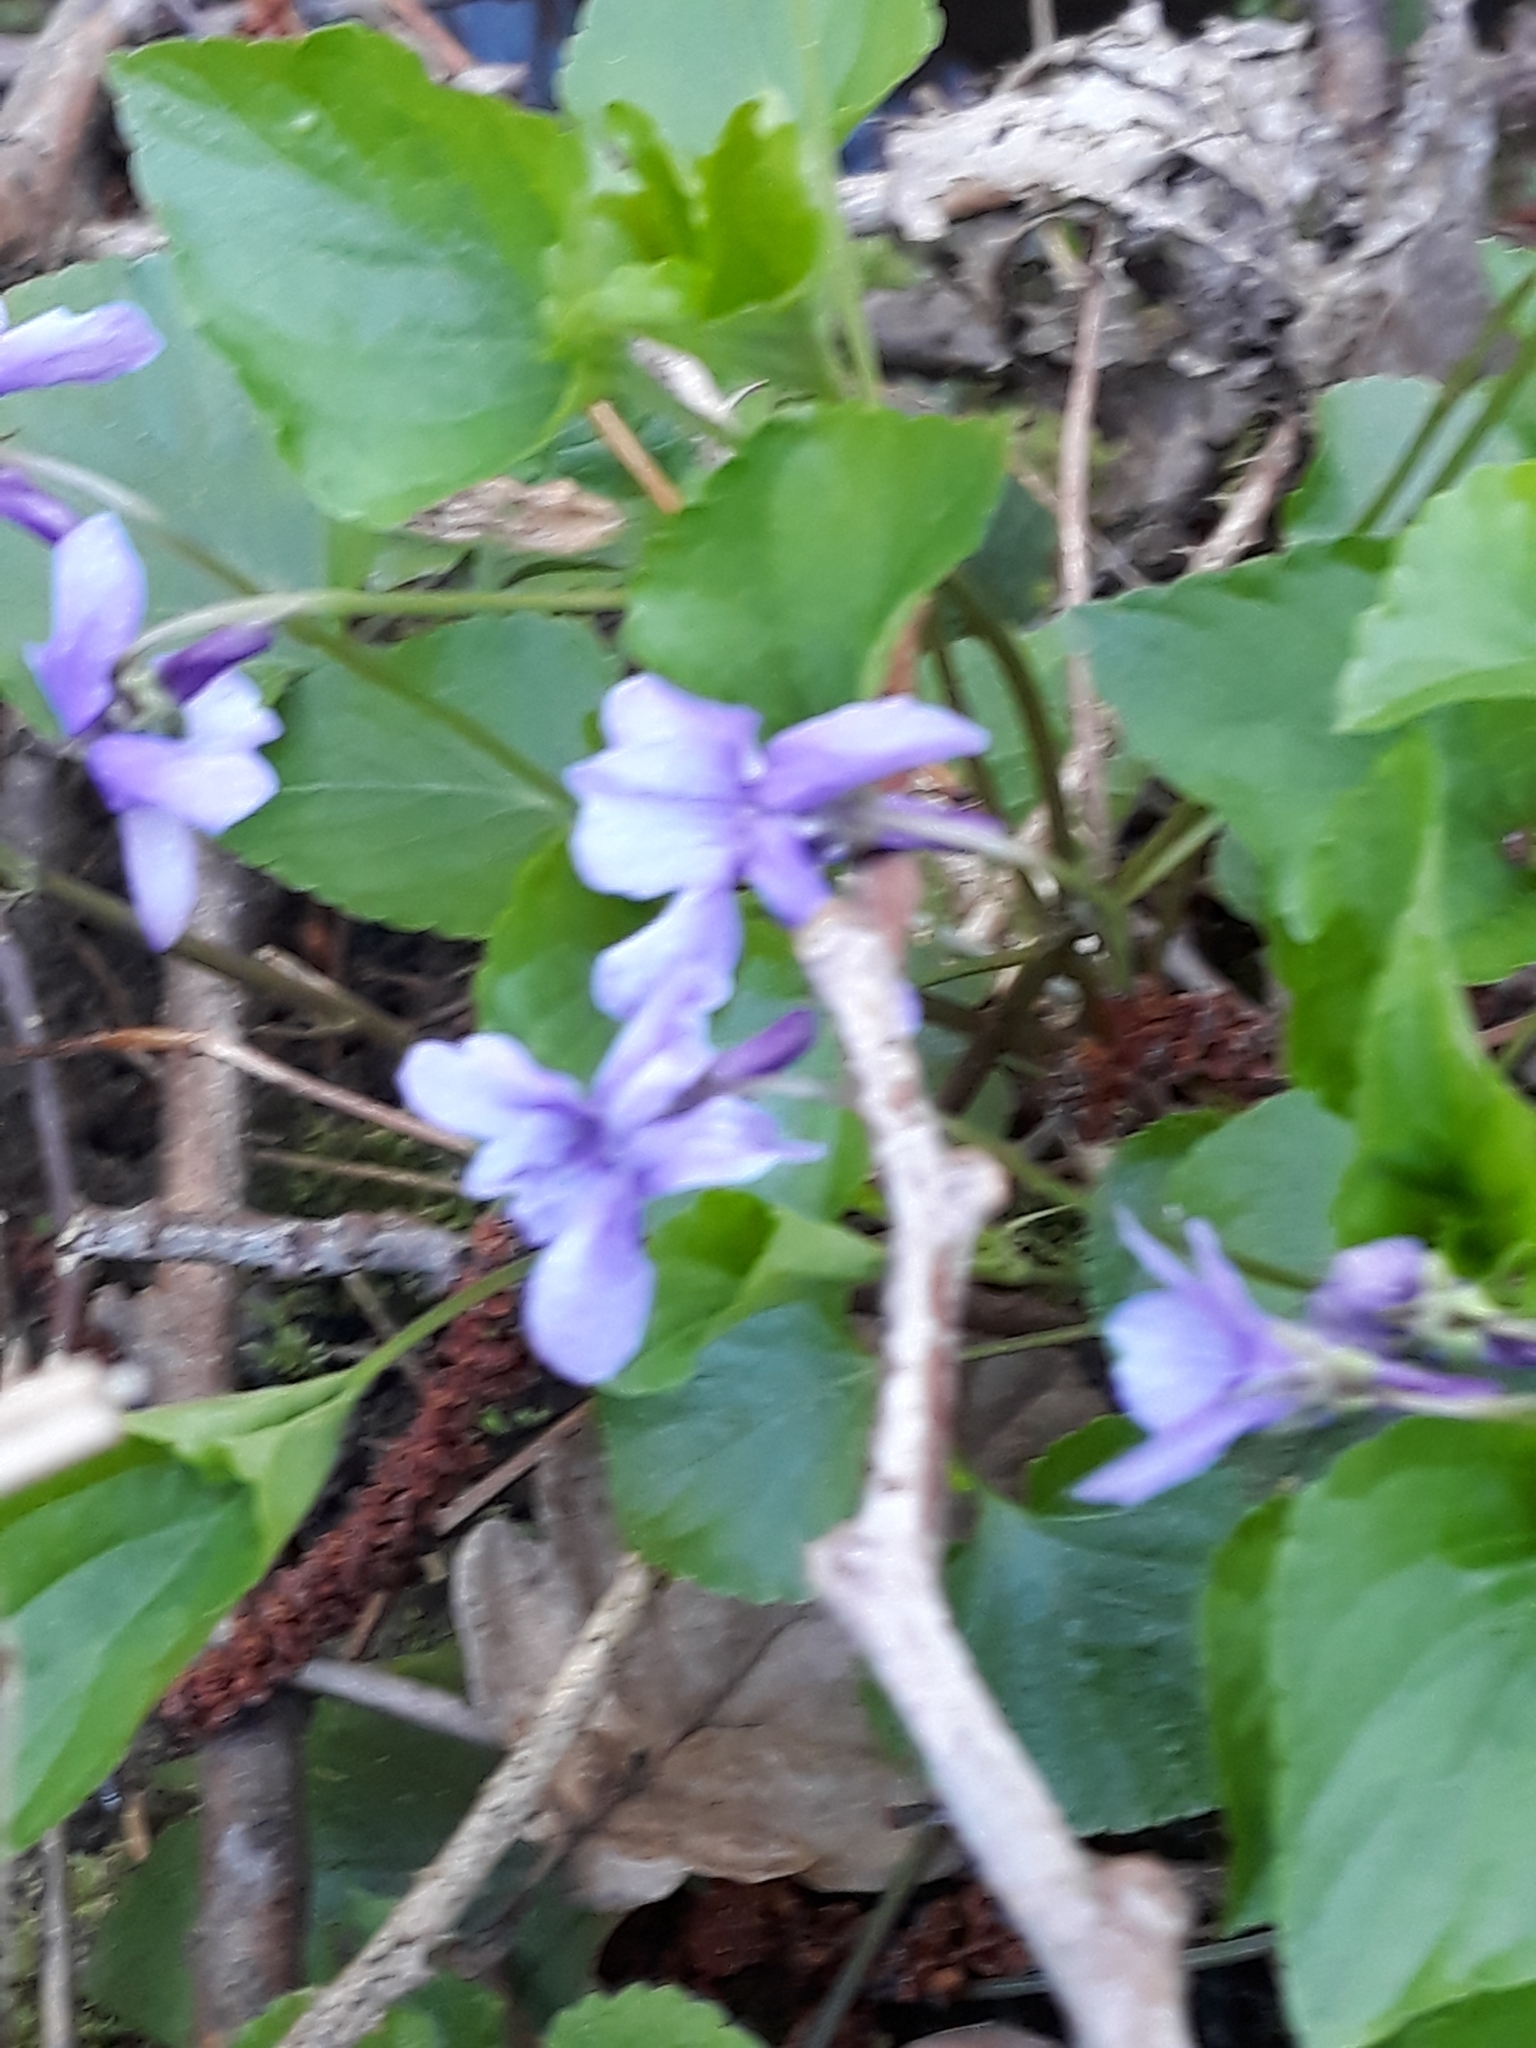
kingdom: Plantae
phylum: Tracheophyta
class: Magnoliopsida
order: Malpighiales
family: Violaceae
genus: Viola
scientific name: Viola reichenbachiana
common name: Early dog-violet
